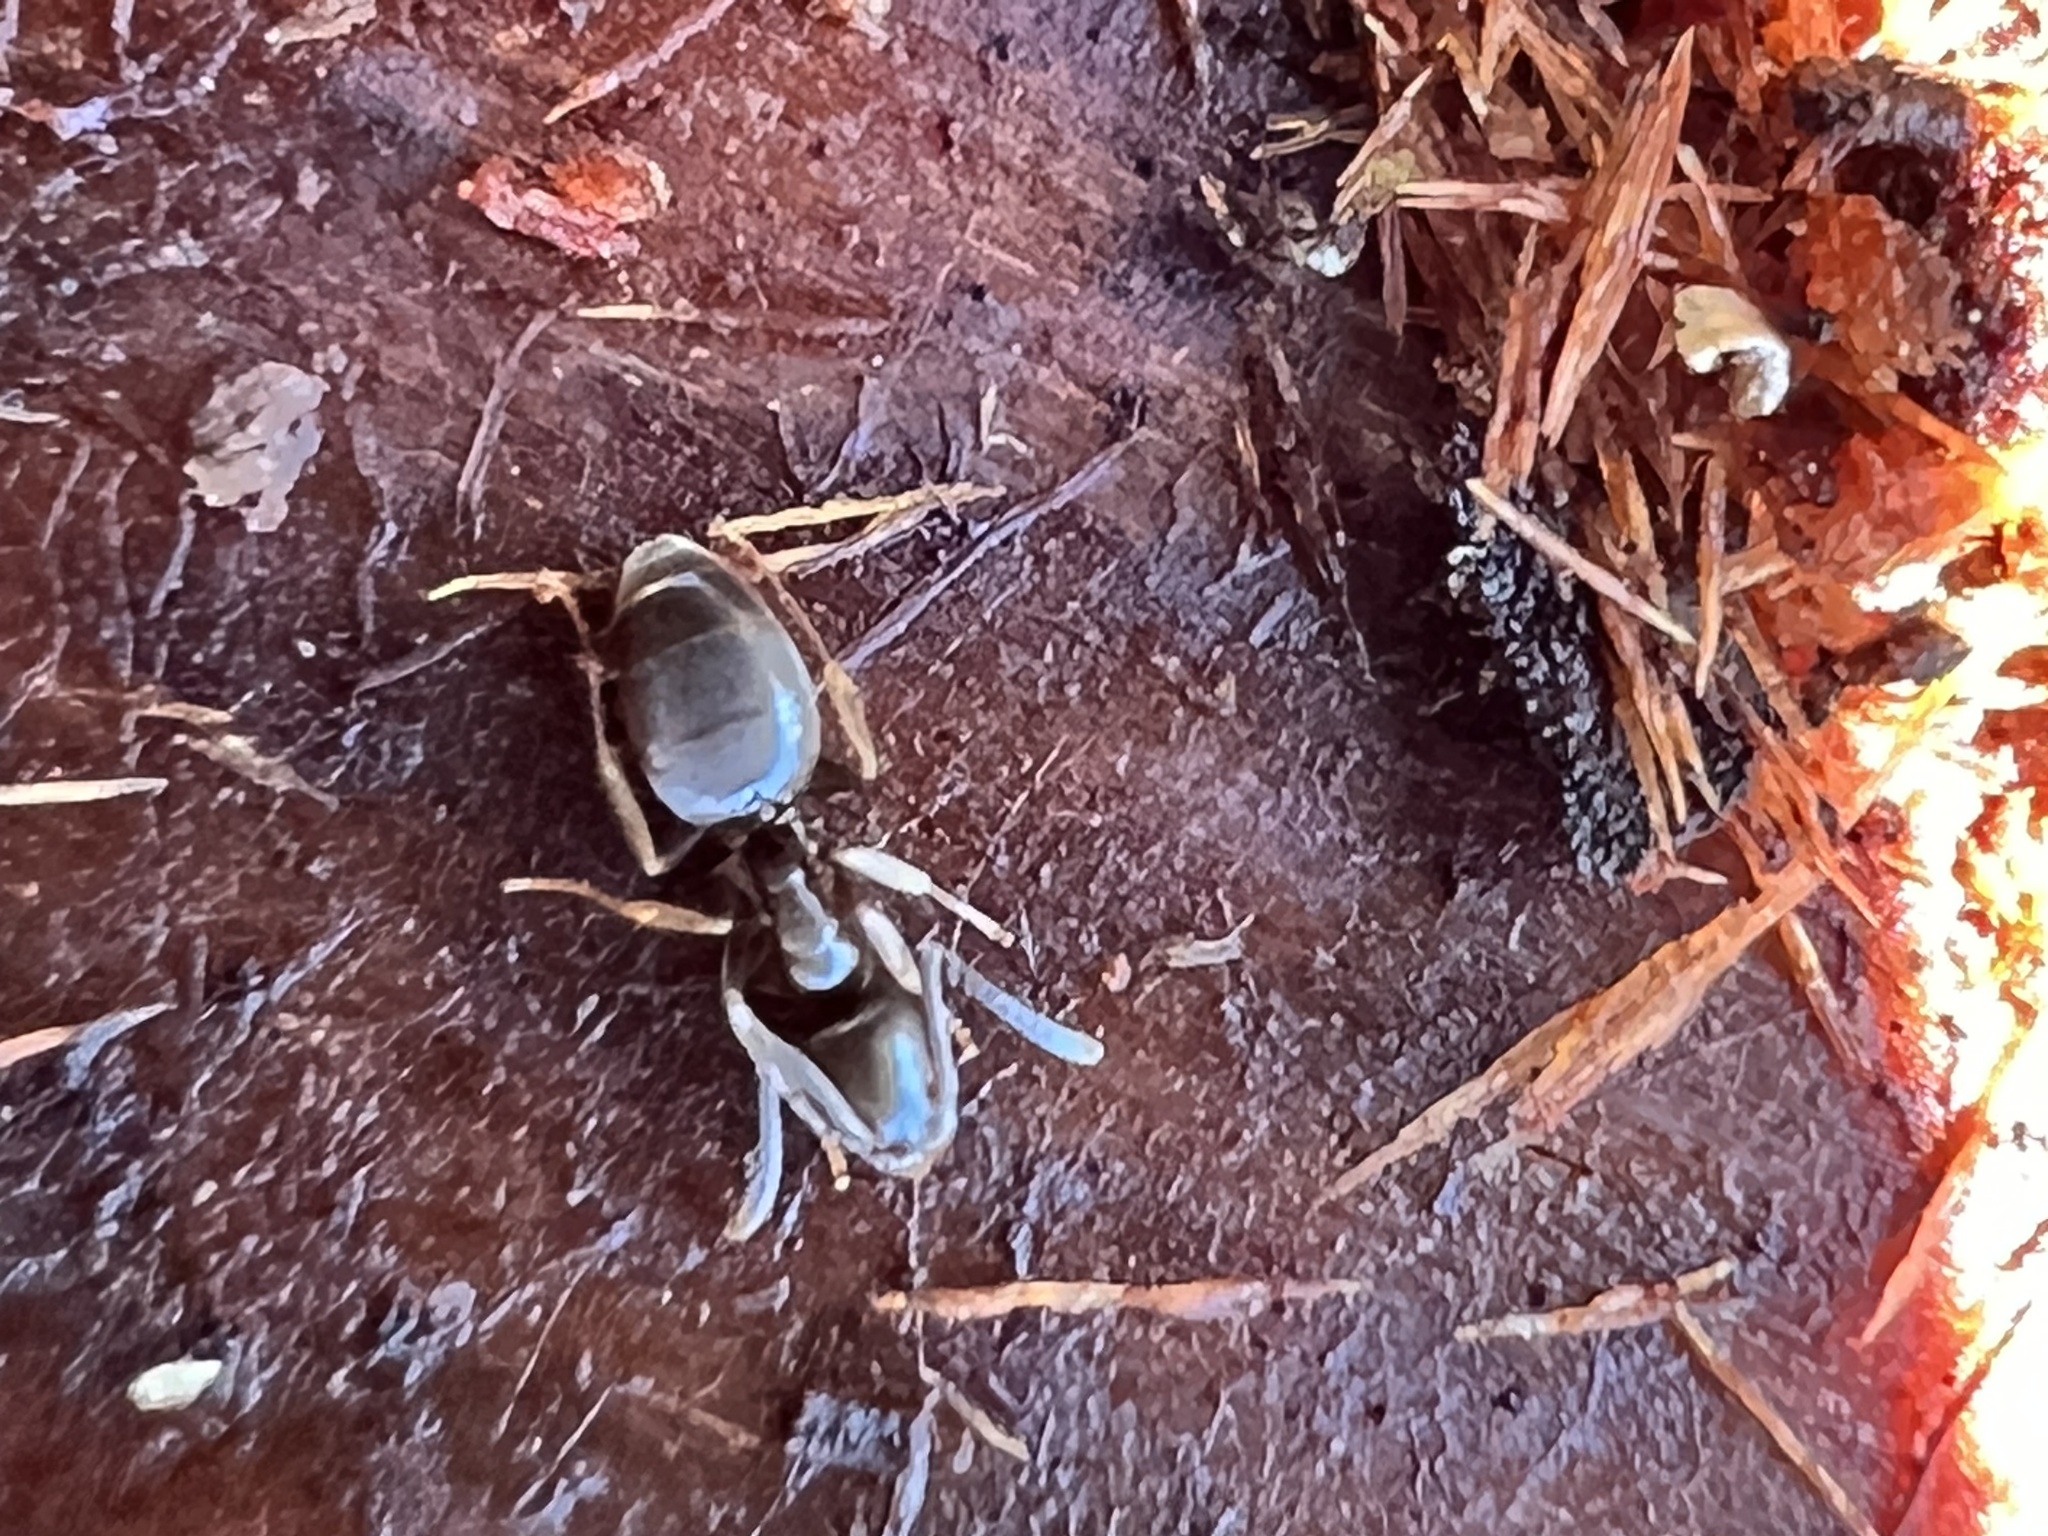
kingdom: Animalia
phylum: Arthropoda
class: Insecta
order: Hymenoptera
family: Formicidae
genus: Tapinoma
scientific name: Tapinoma sessile
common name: Odorous house ant
